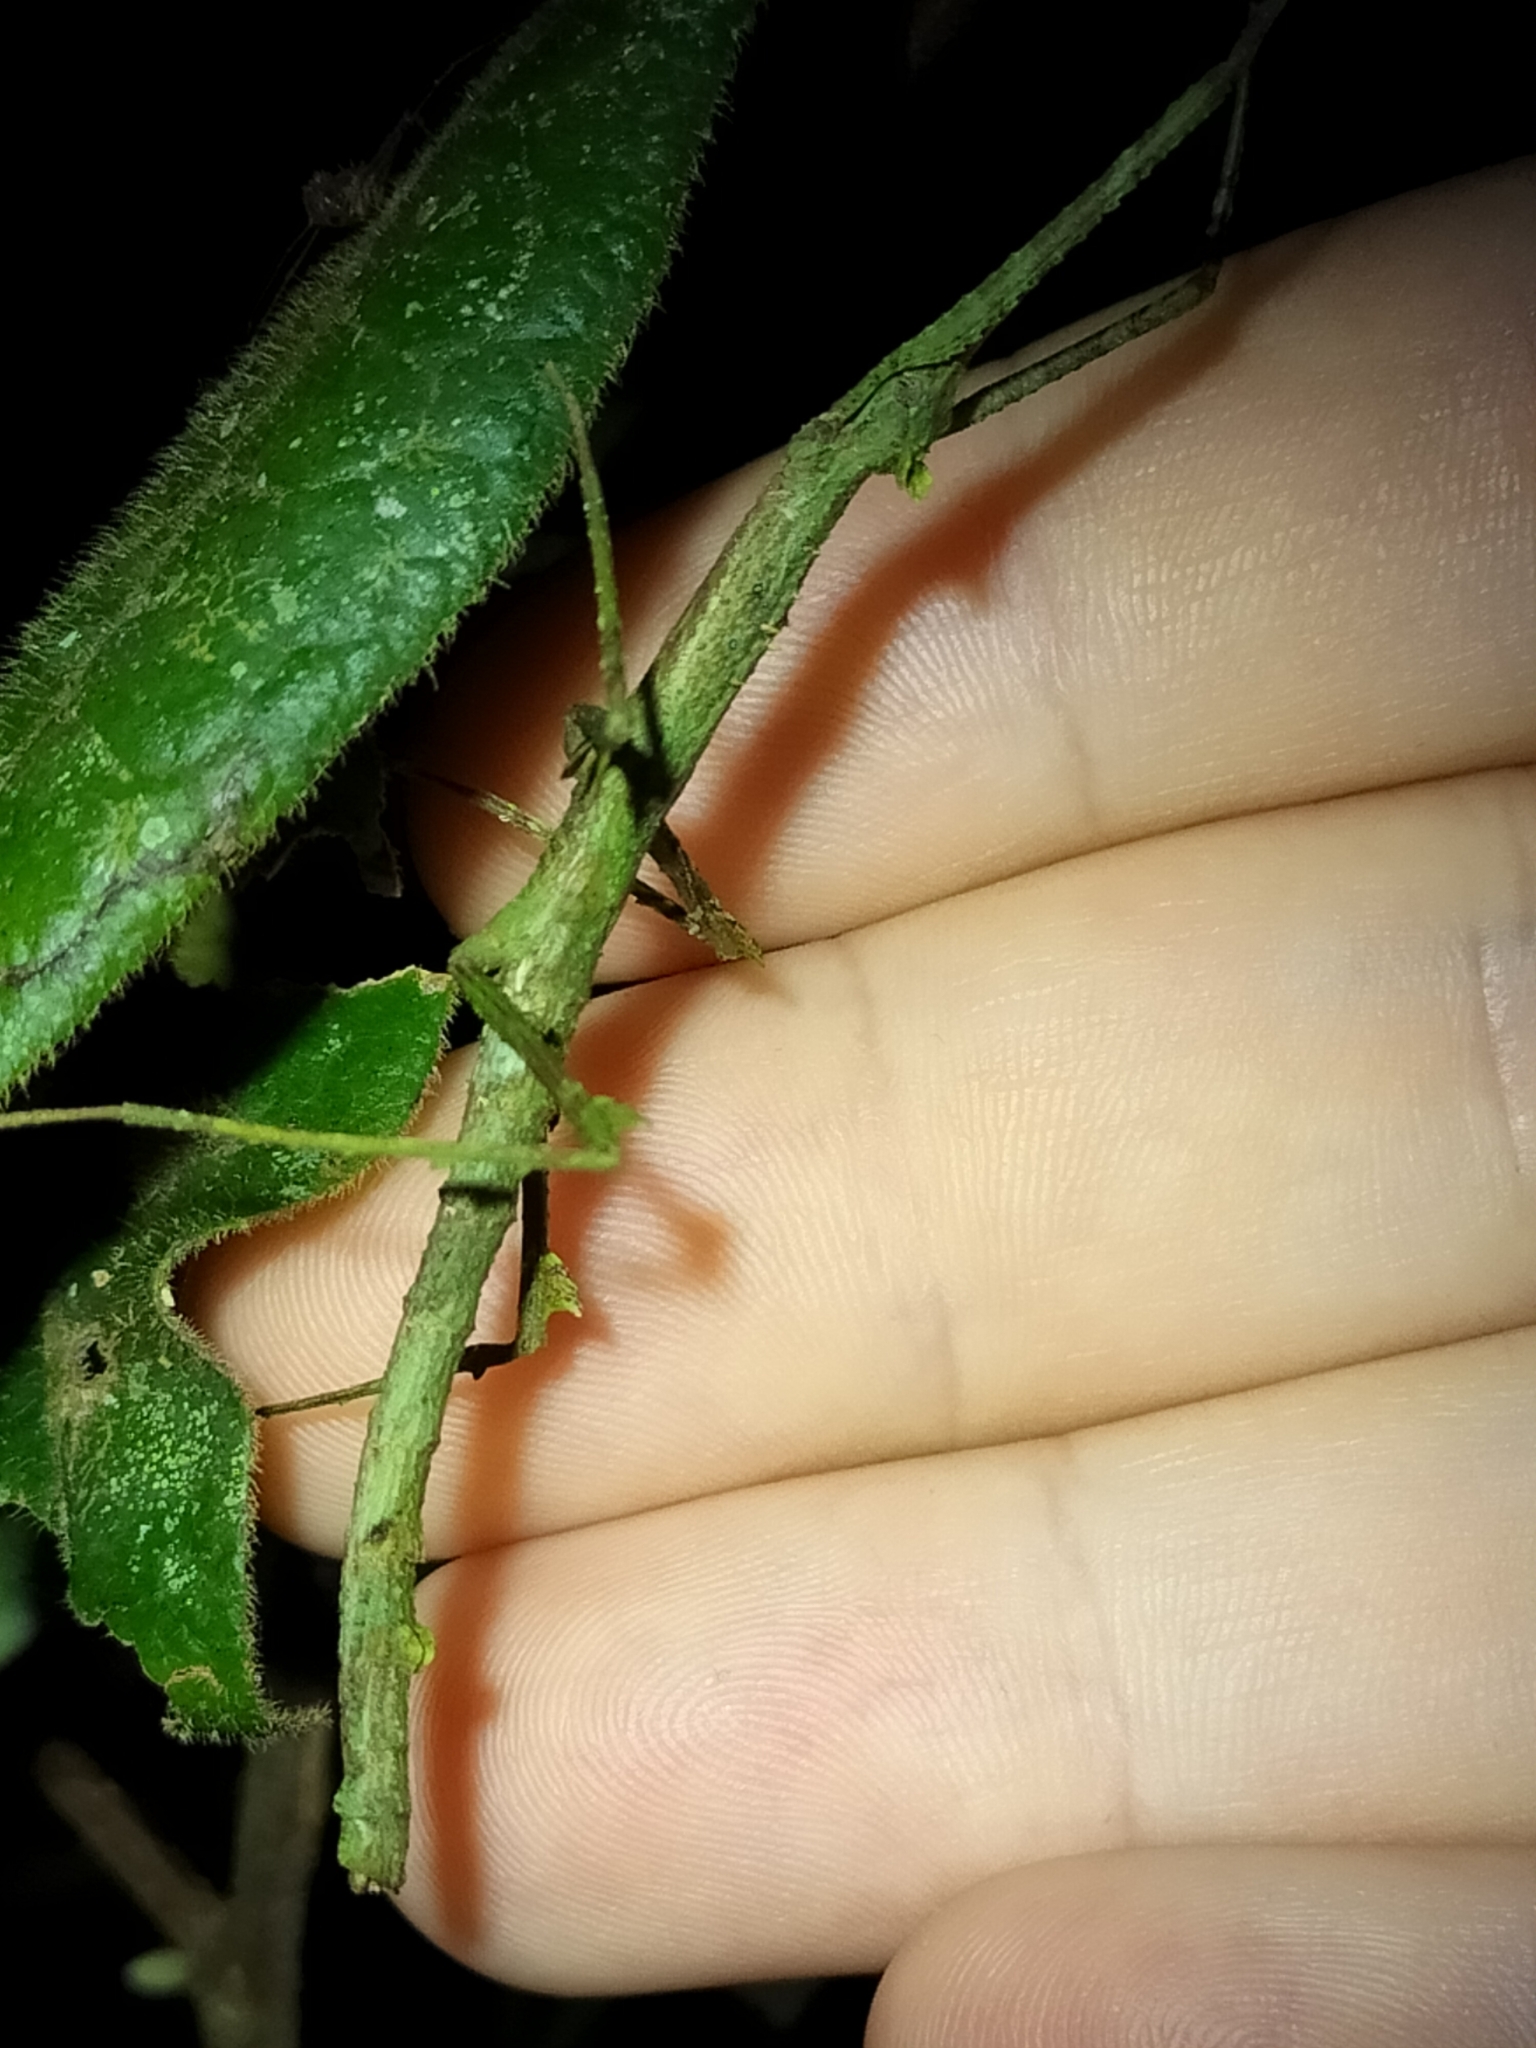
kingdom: Animalia
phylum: Arthropoda
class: Insecta
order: Phasmida
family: Phasmatidae
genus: Onchestus
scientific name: Onchestus rentzi
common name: Rentz's stick-insect
